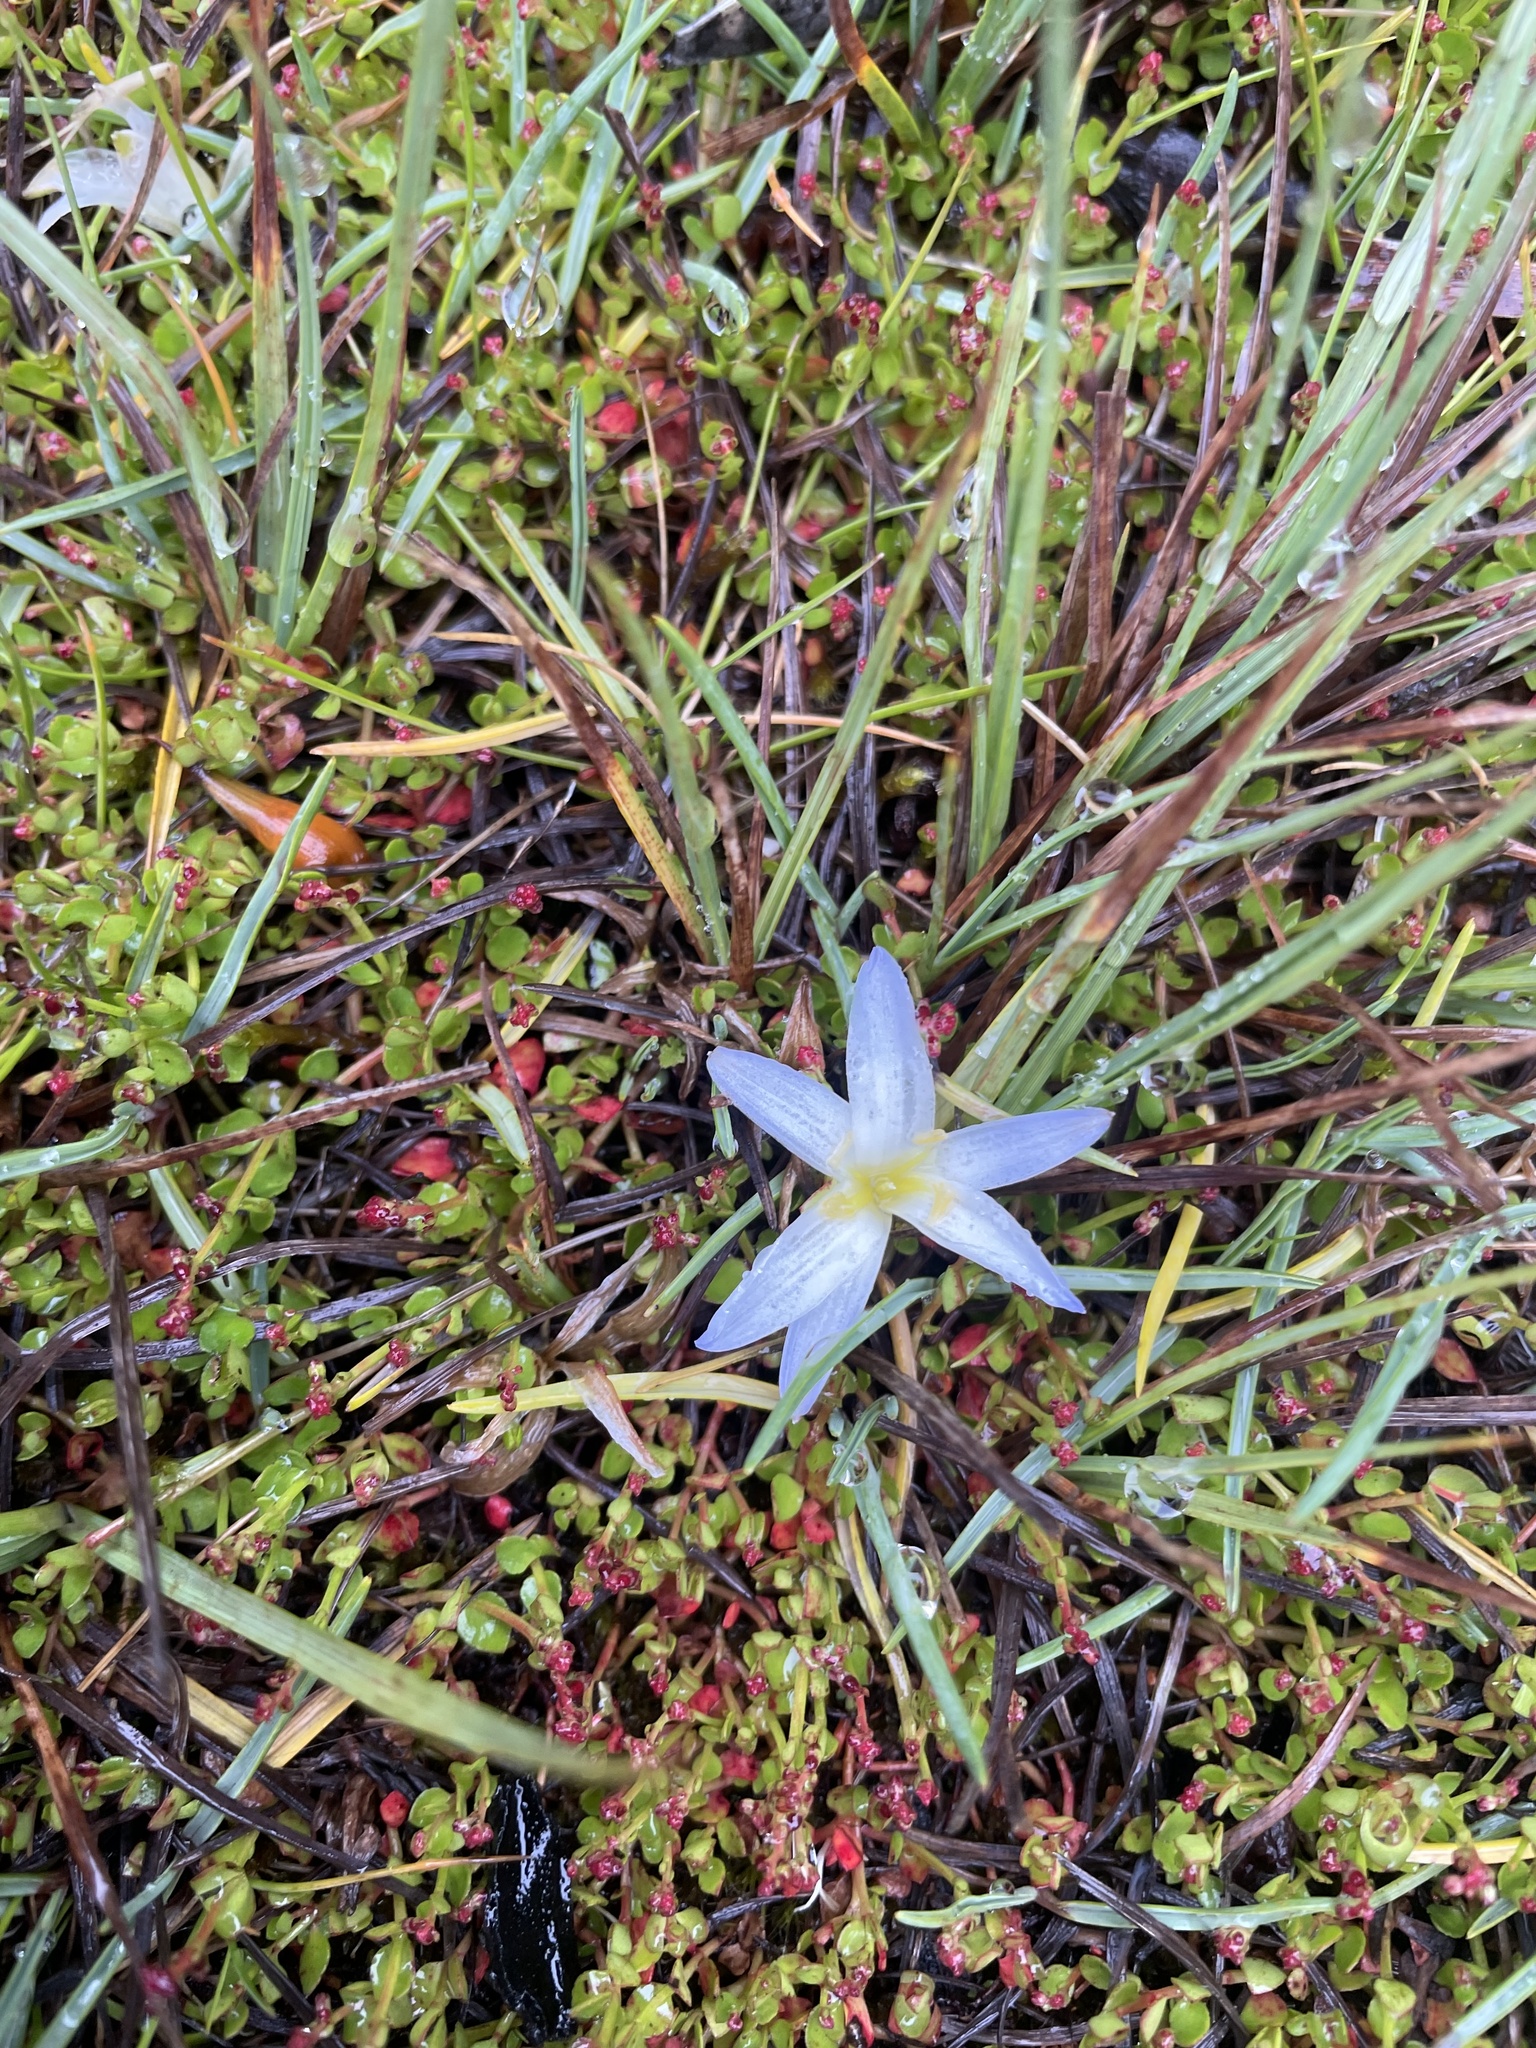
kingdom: Plantae
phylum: Tracheophyta
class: Liliopsida
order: Asparagales
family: Asphodelaceae
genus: Herpolirion
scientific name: Herpolirion novae-zelandiae
